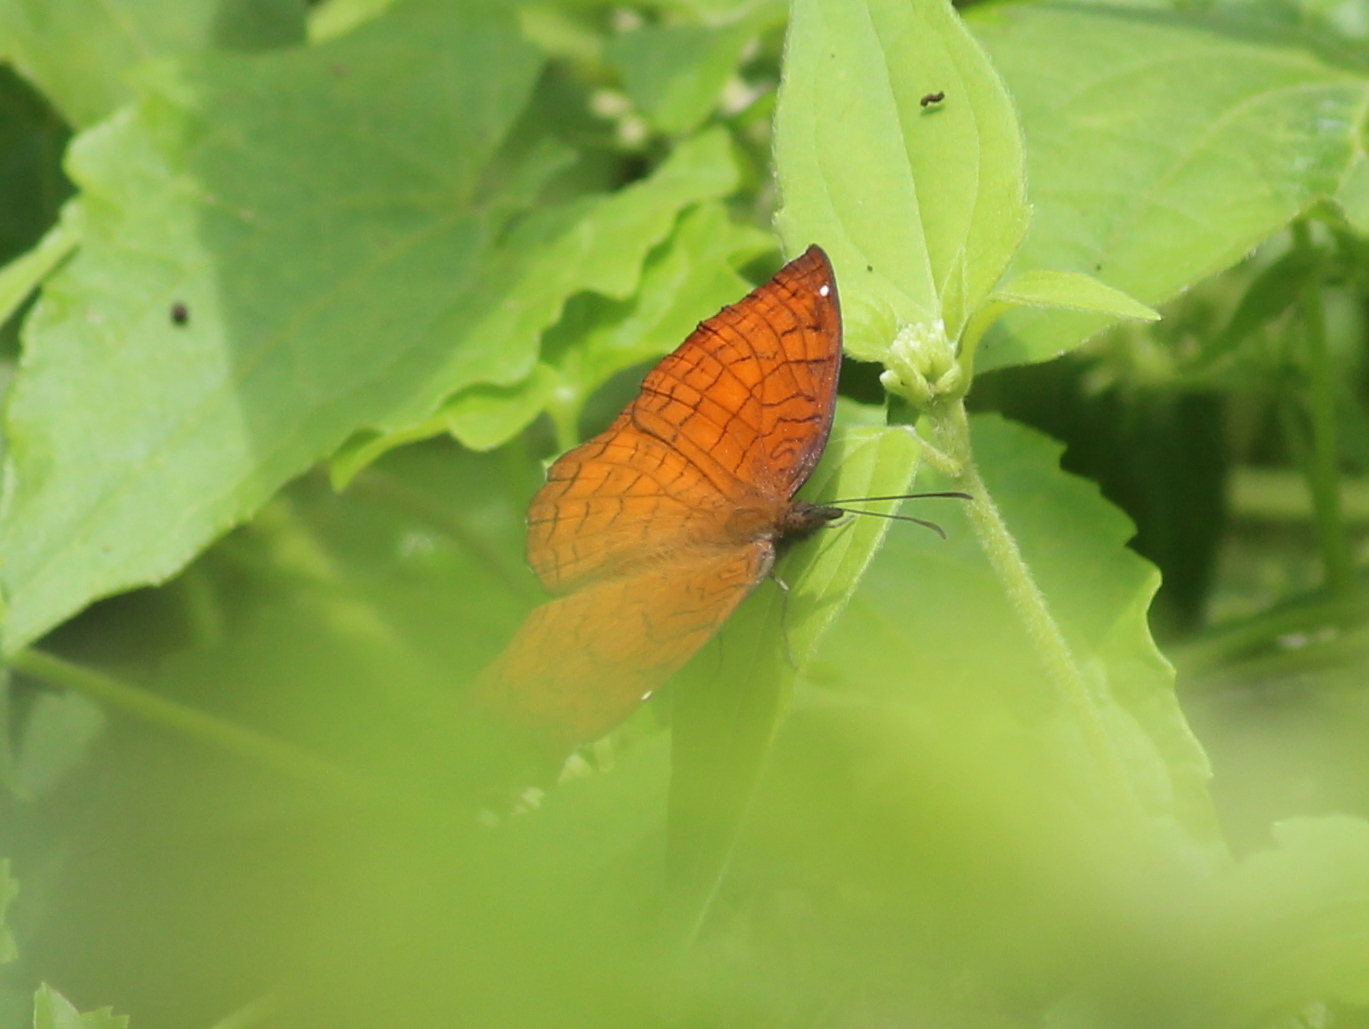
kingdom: Animalia
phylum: Arthropoda
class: Insecta
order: Lepidoptera
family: Nymphalidae
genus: Ariadne
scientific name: Ariadne ariadne
